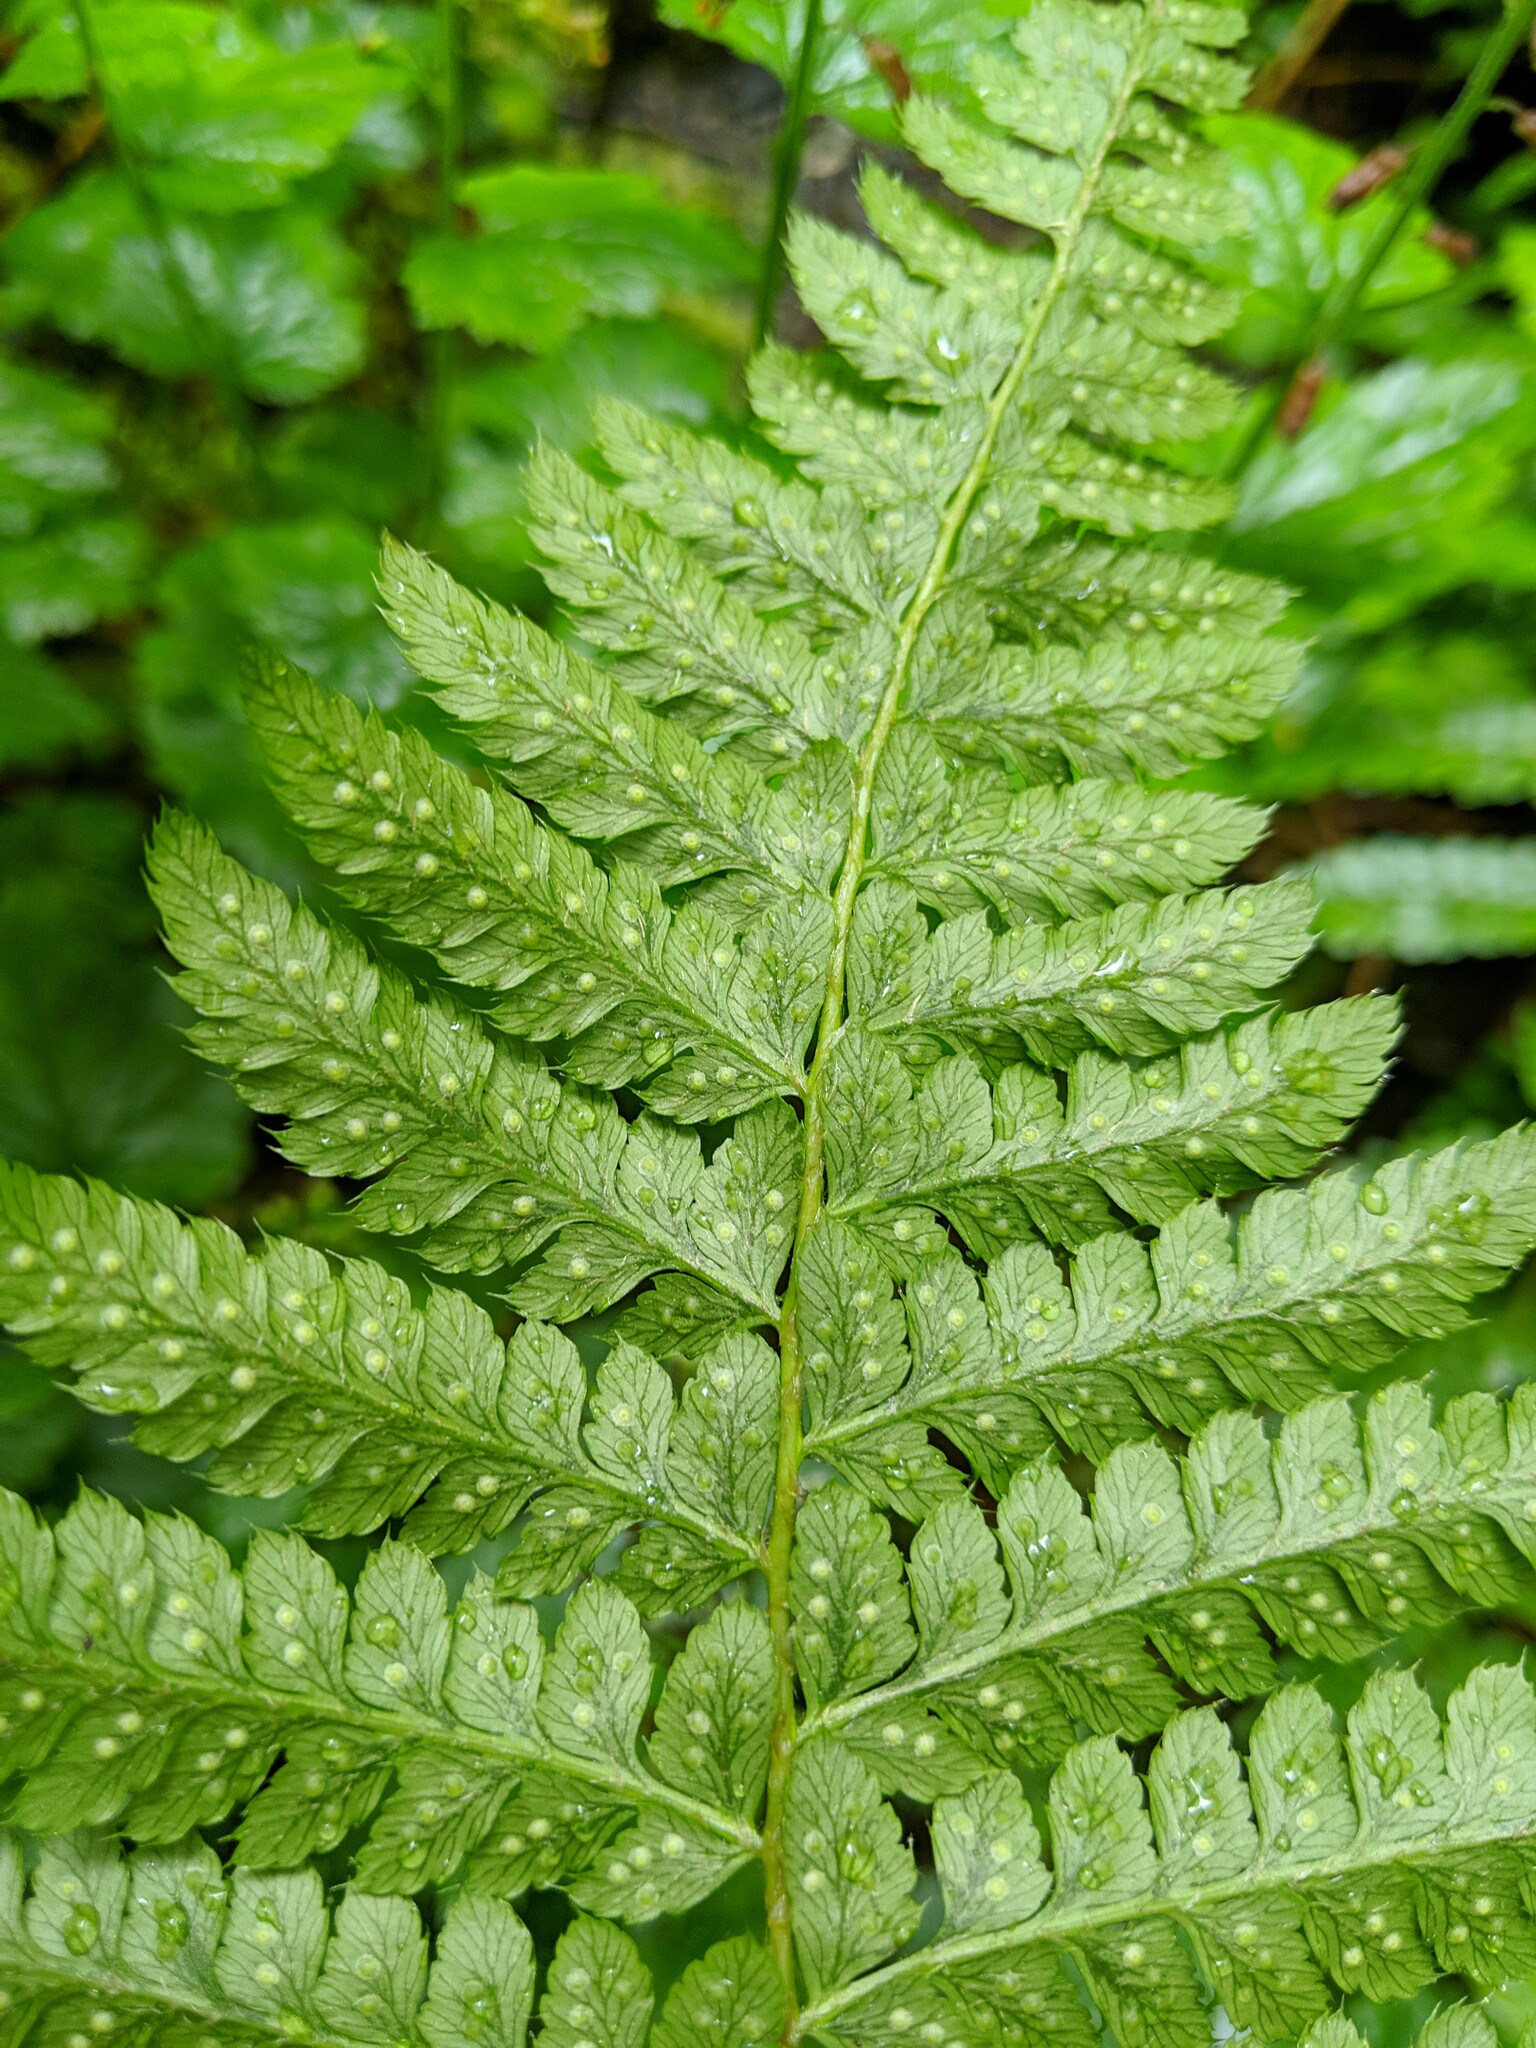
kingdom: Plantae
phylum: Tracheophyta
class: Polypodiopsida
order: Polypodiales
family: Dryopteridaceae
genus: Polystichum
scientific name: Polystichum braunii
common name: Braun's holly fern
